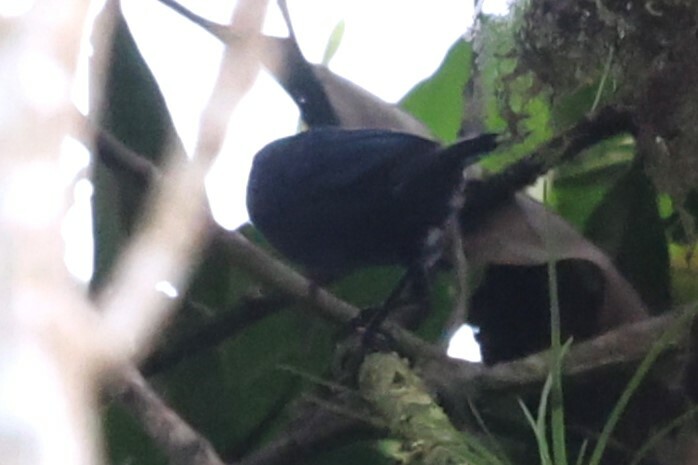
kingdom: Animalia
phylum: Chordata
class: Aves
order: Passeriformes
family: Thraupidae
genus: Diglossa
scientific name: Diglossa cyanea
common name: Masked flowerpiercer
